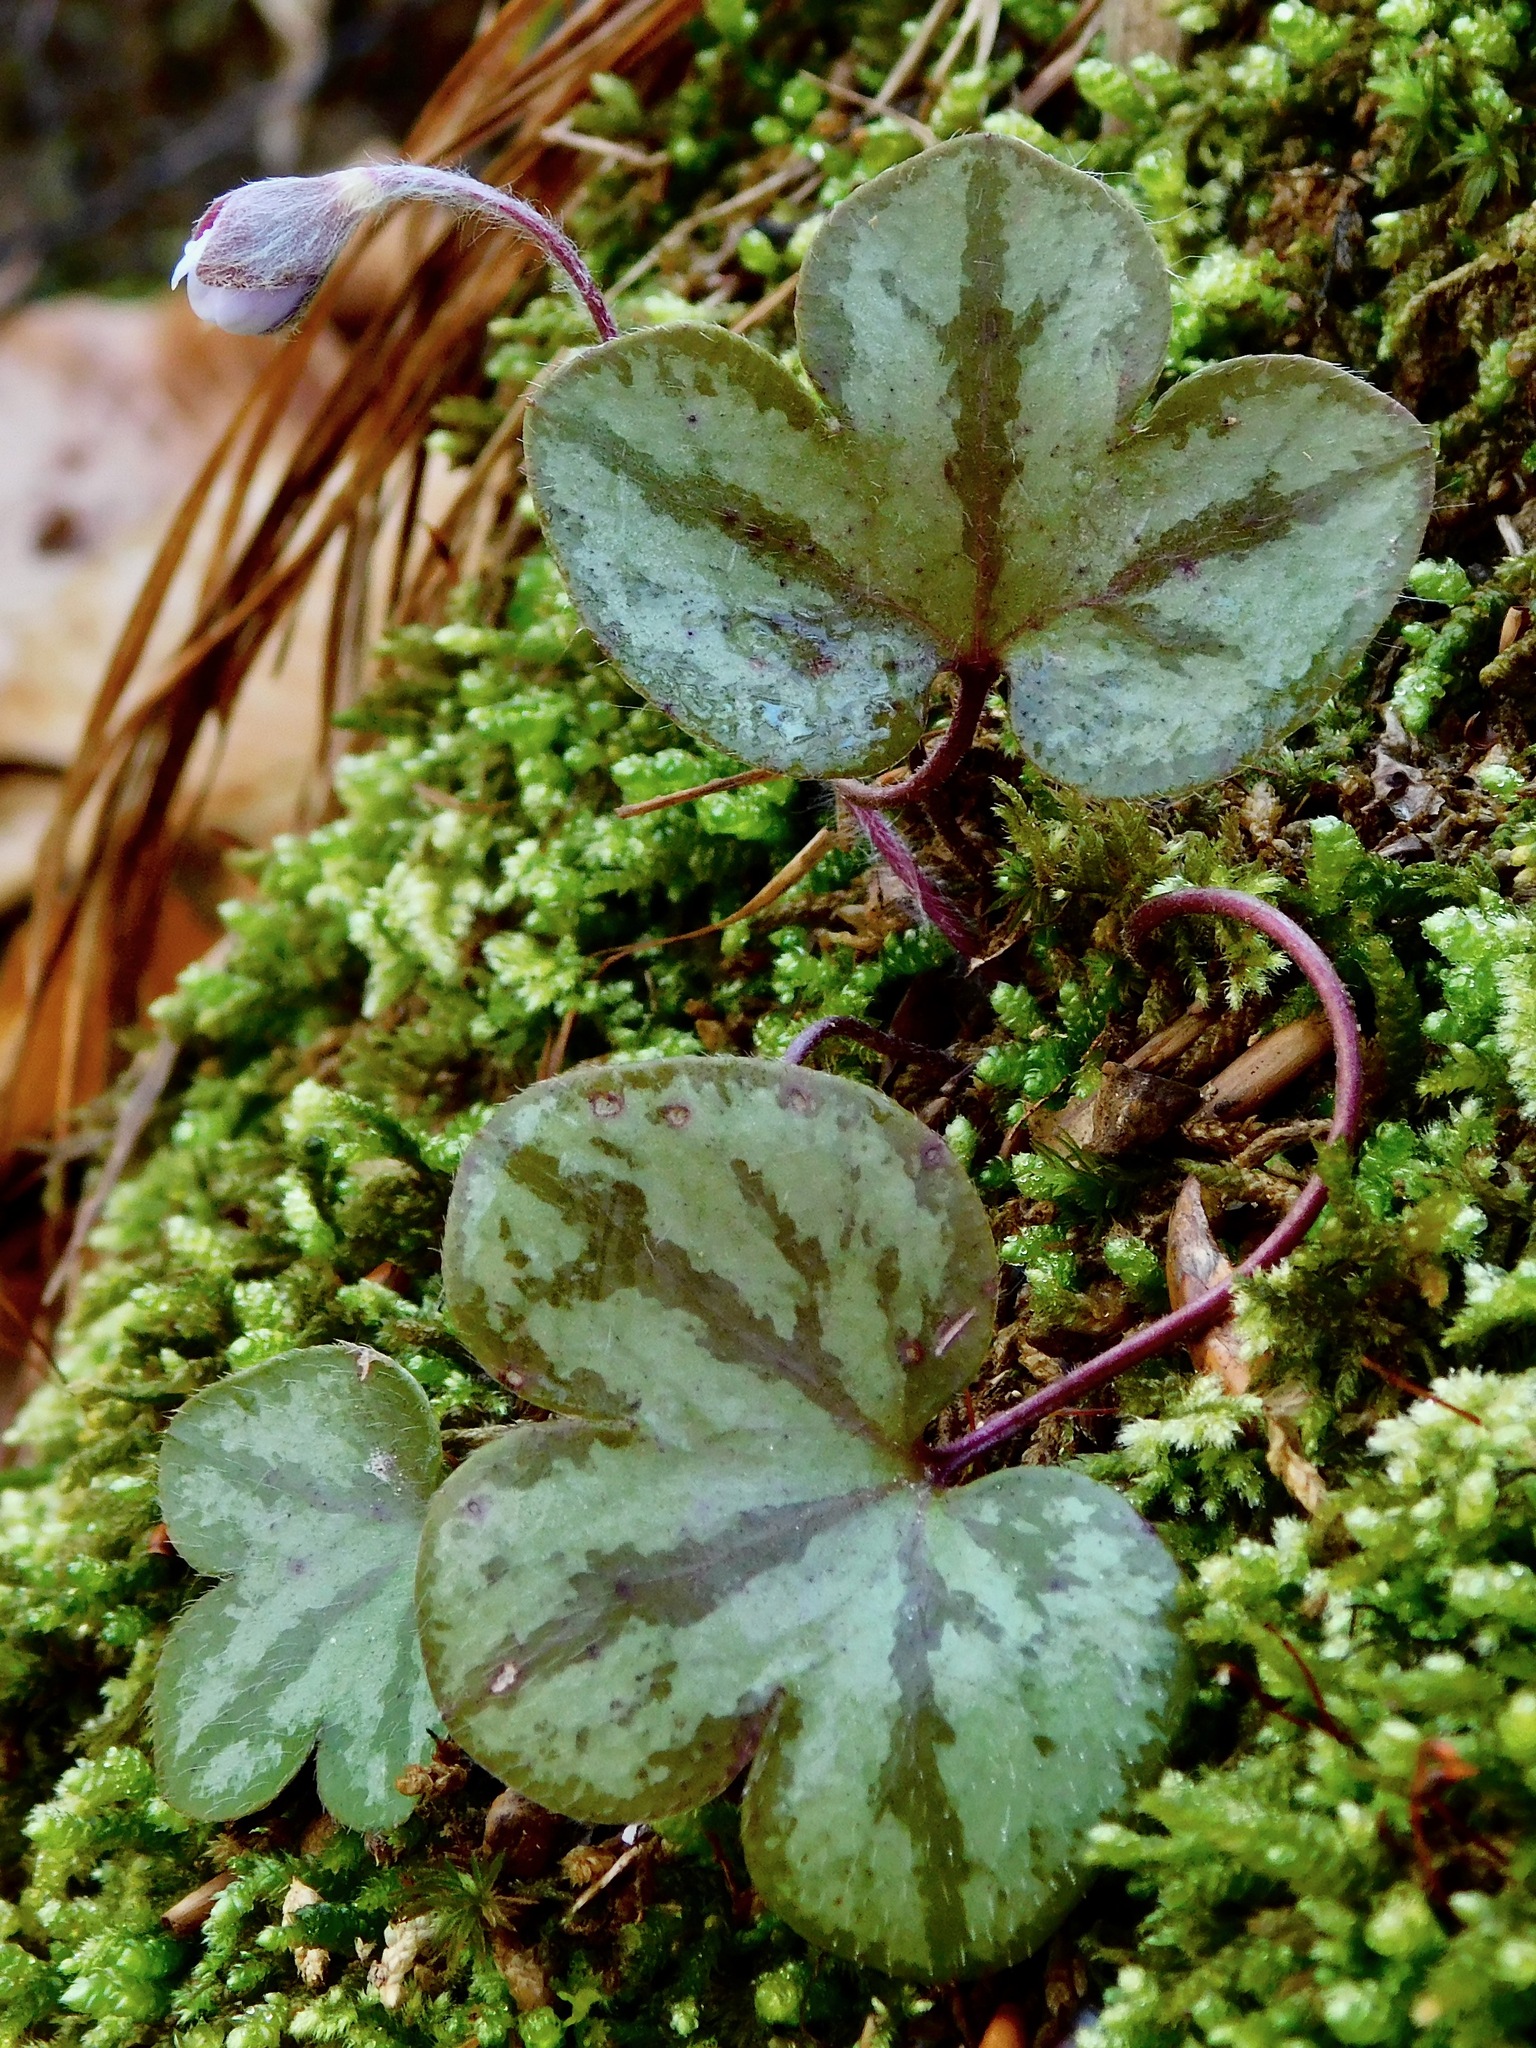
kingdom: Plantae
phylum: Tracheophyta
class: Magnoliopsida
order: Ranunculales
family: Ranunculaceae
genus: Hepatica
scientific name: Hepatica americana
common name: American hepatica
